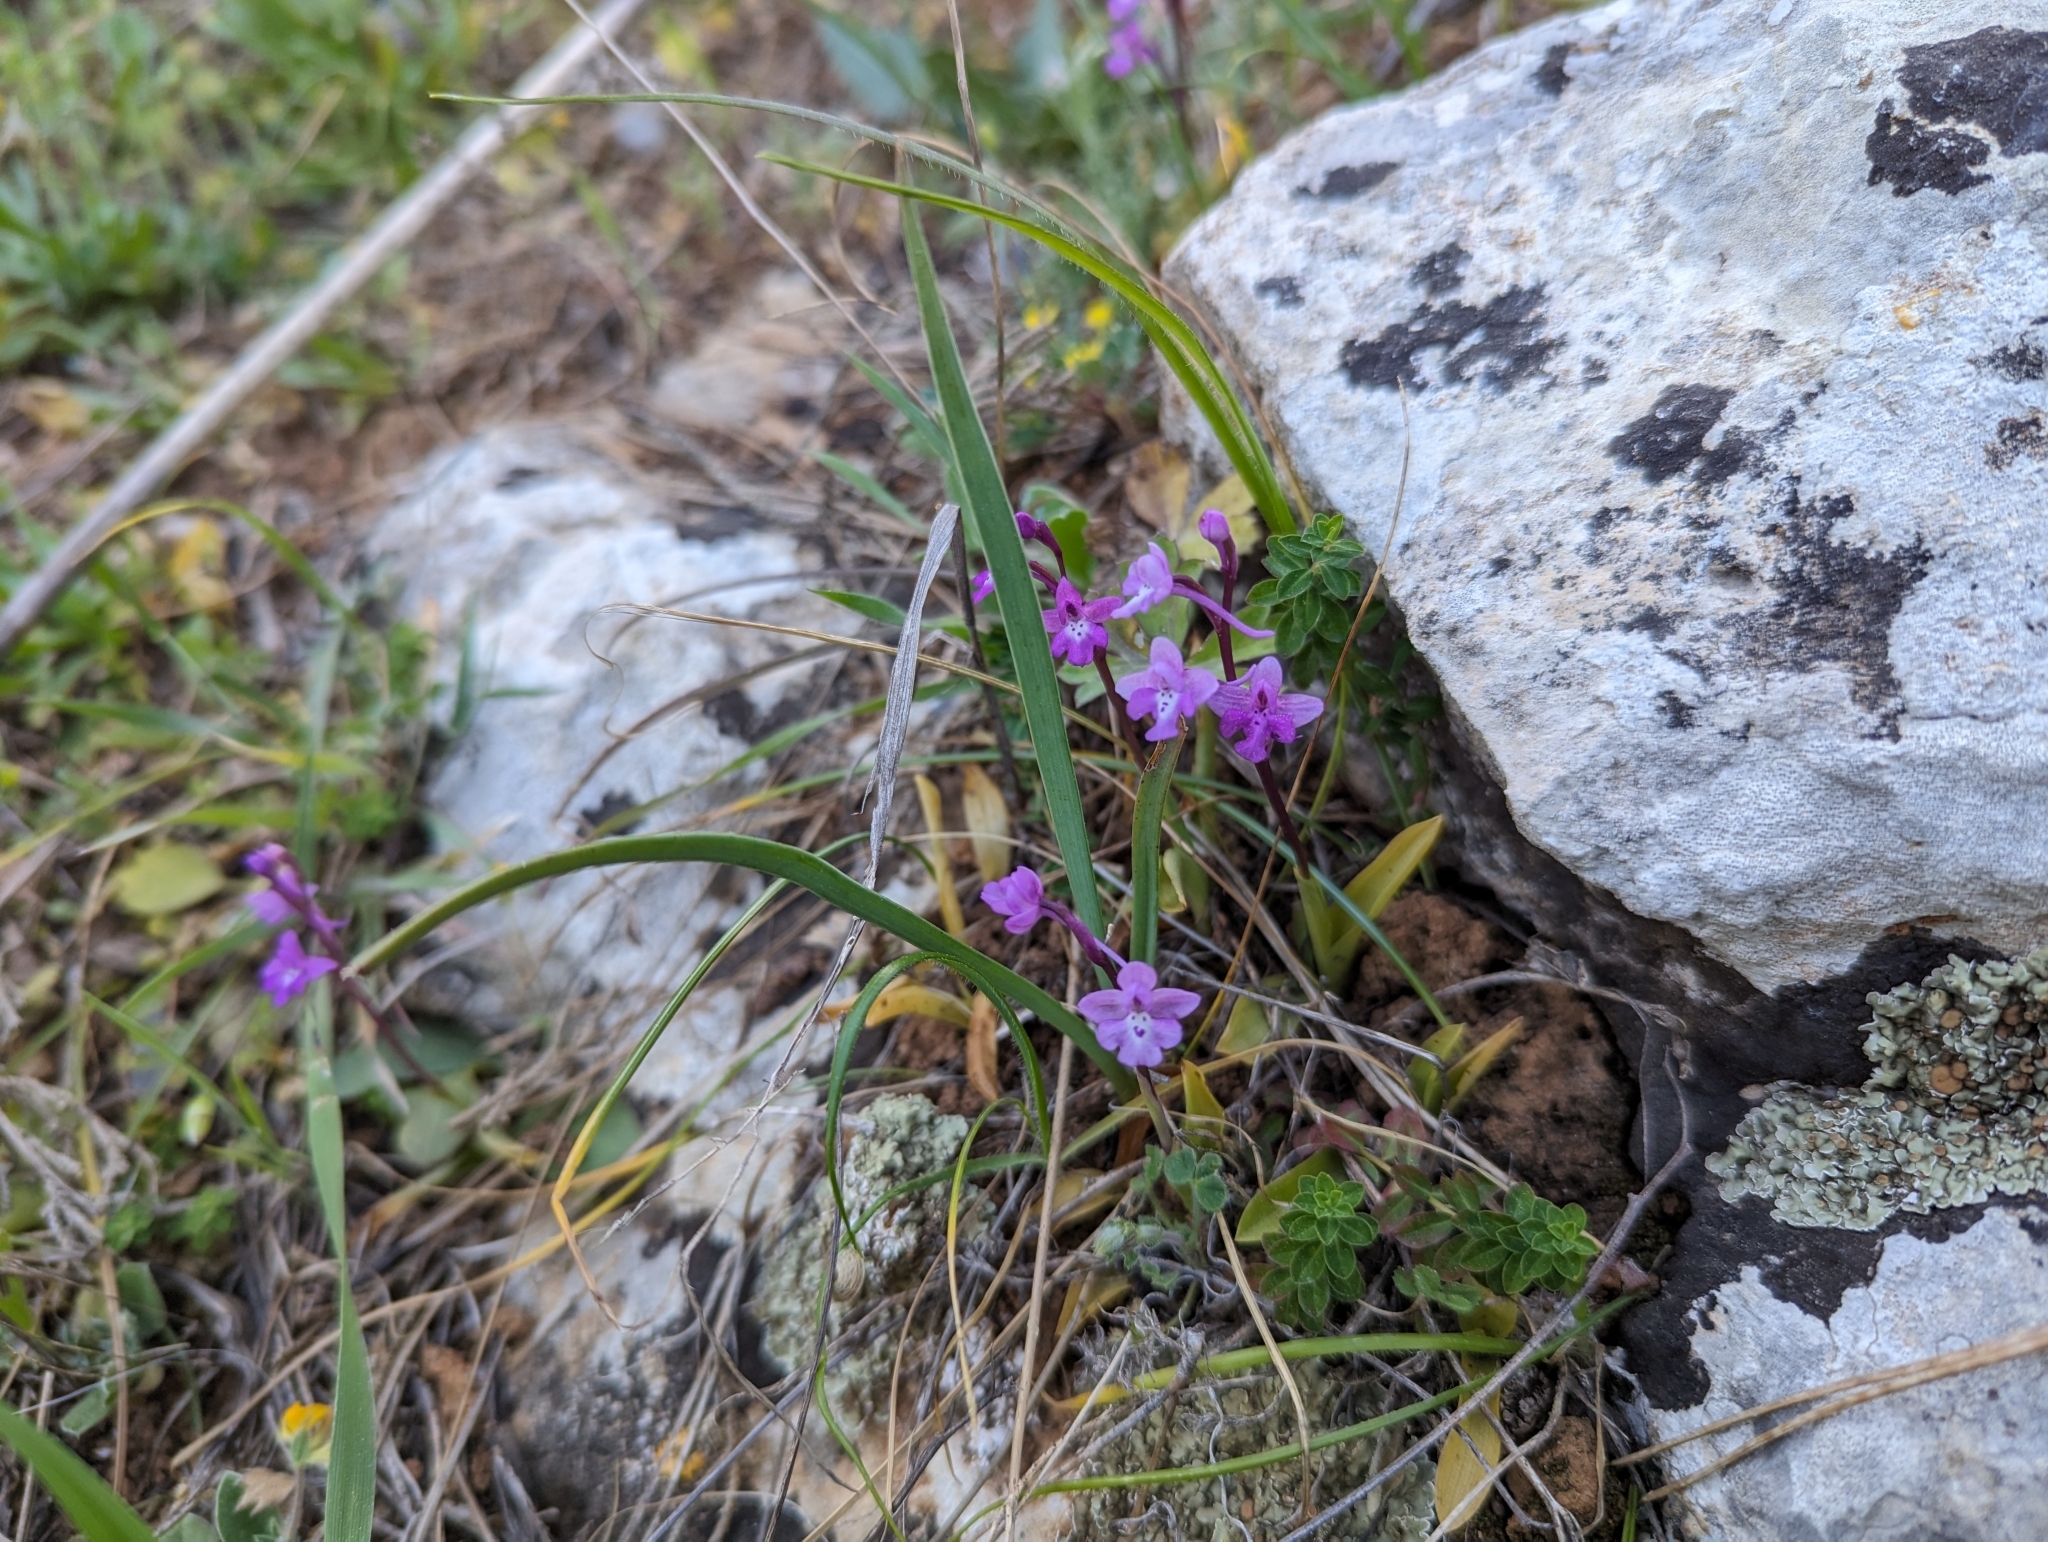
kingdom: Plantae
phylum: Tracheophyta
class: Liliopsida
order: Asparagales
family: Orchidaceae
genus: Orchis
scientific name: Orchis quadripunctata
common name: Four-spotted orchid
